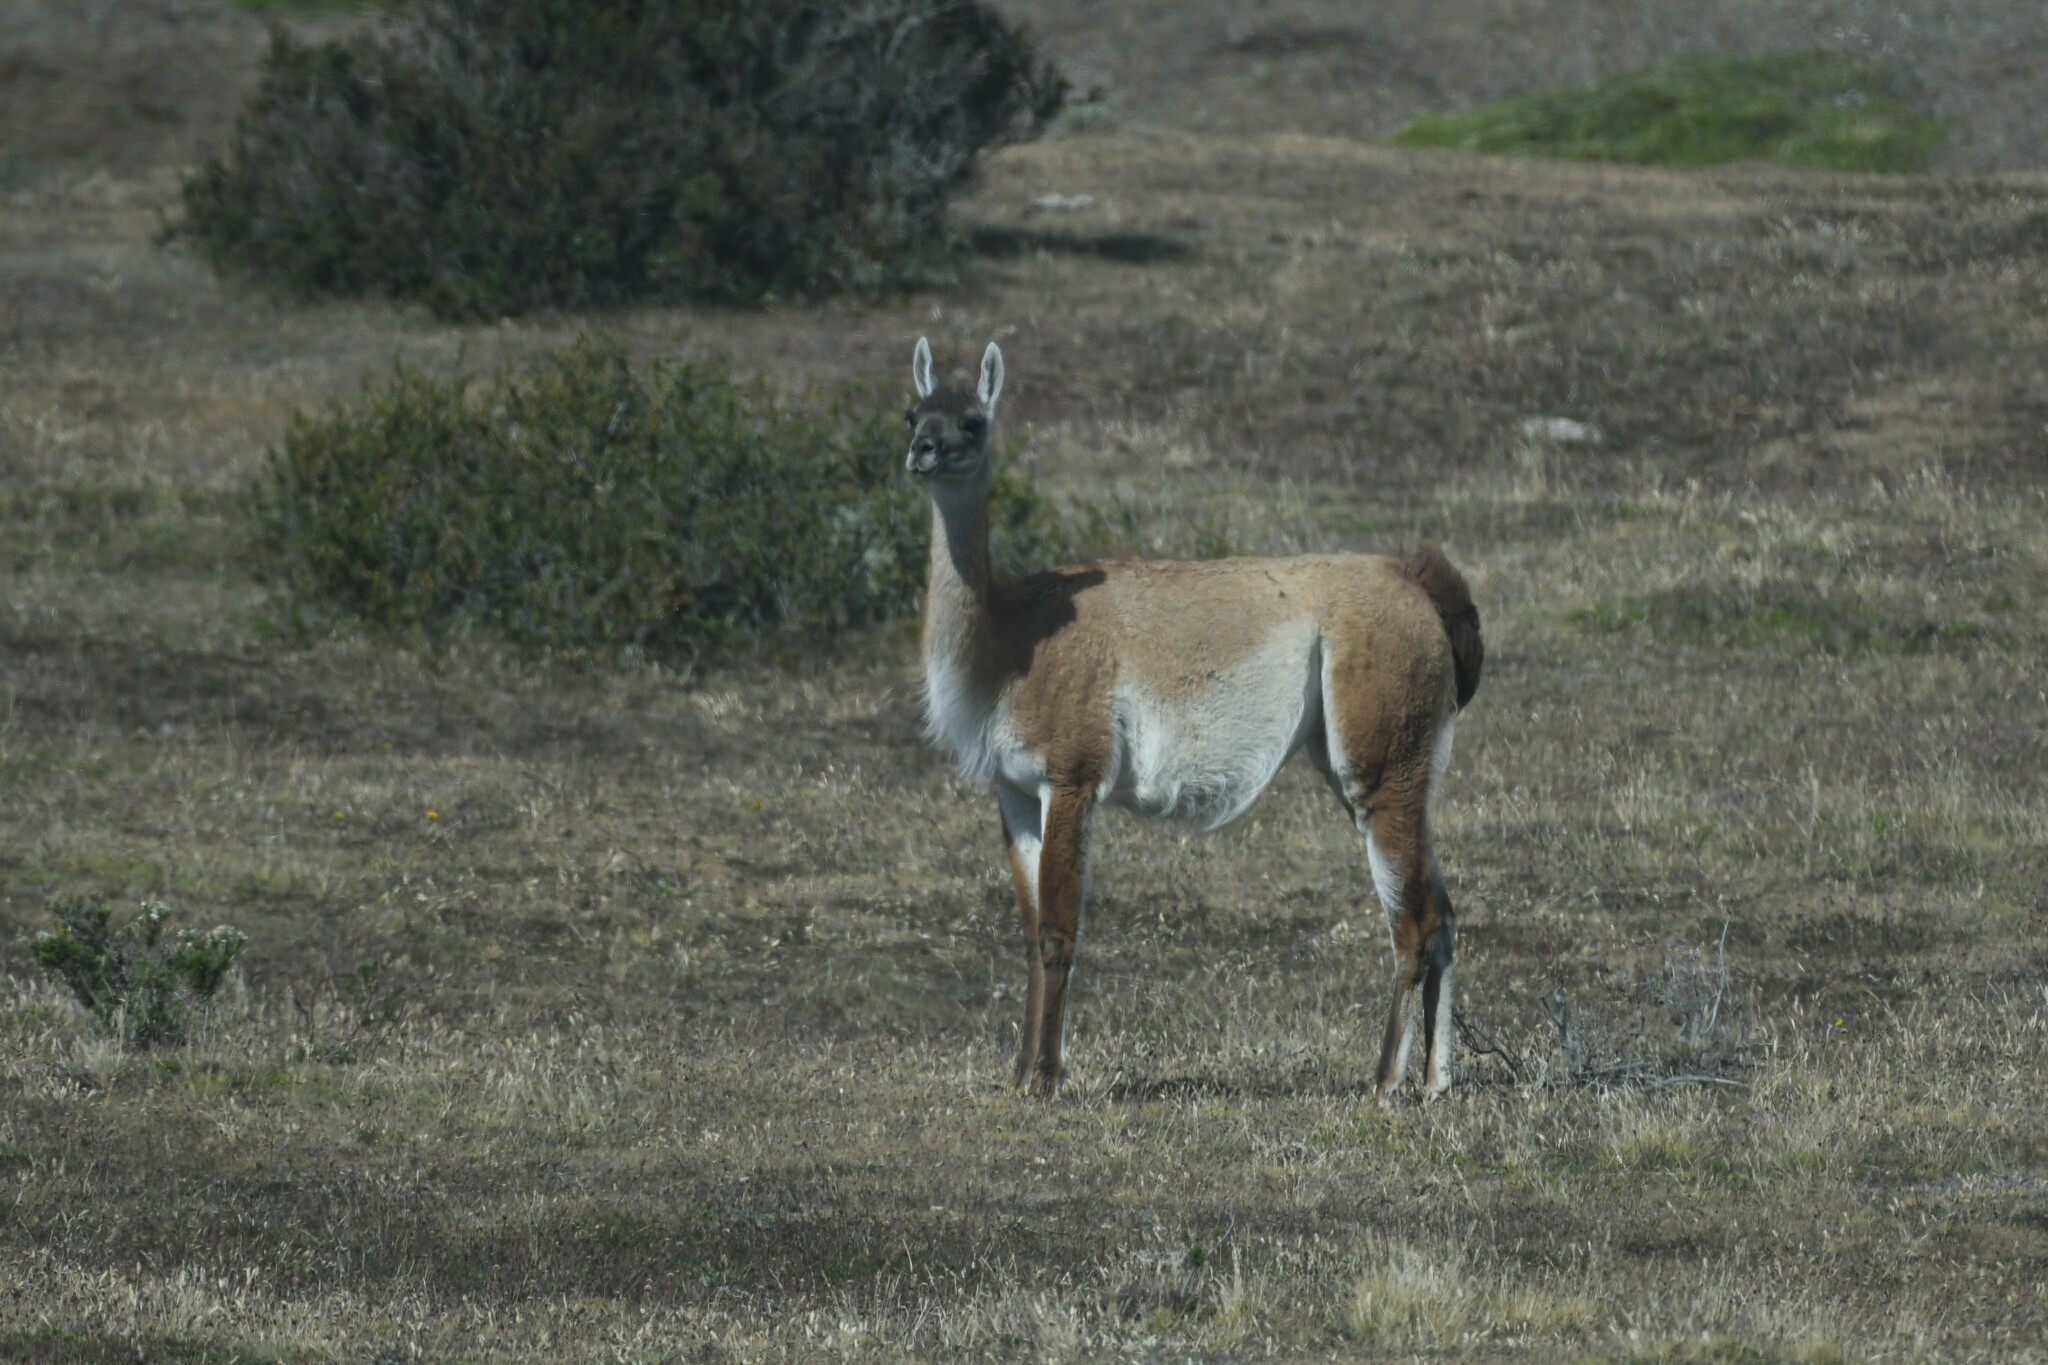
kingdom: Animalia
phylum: Chordata
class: Mammalia
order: Artiodactyla
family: Camelidae
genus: Lama
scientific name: Lama glama
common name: Llama
